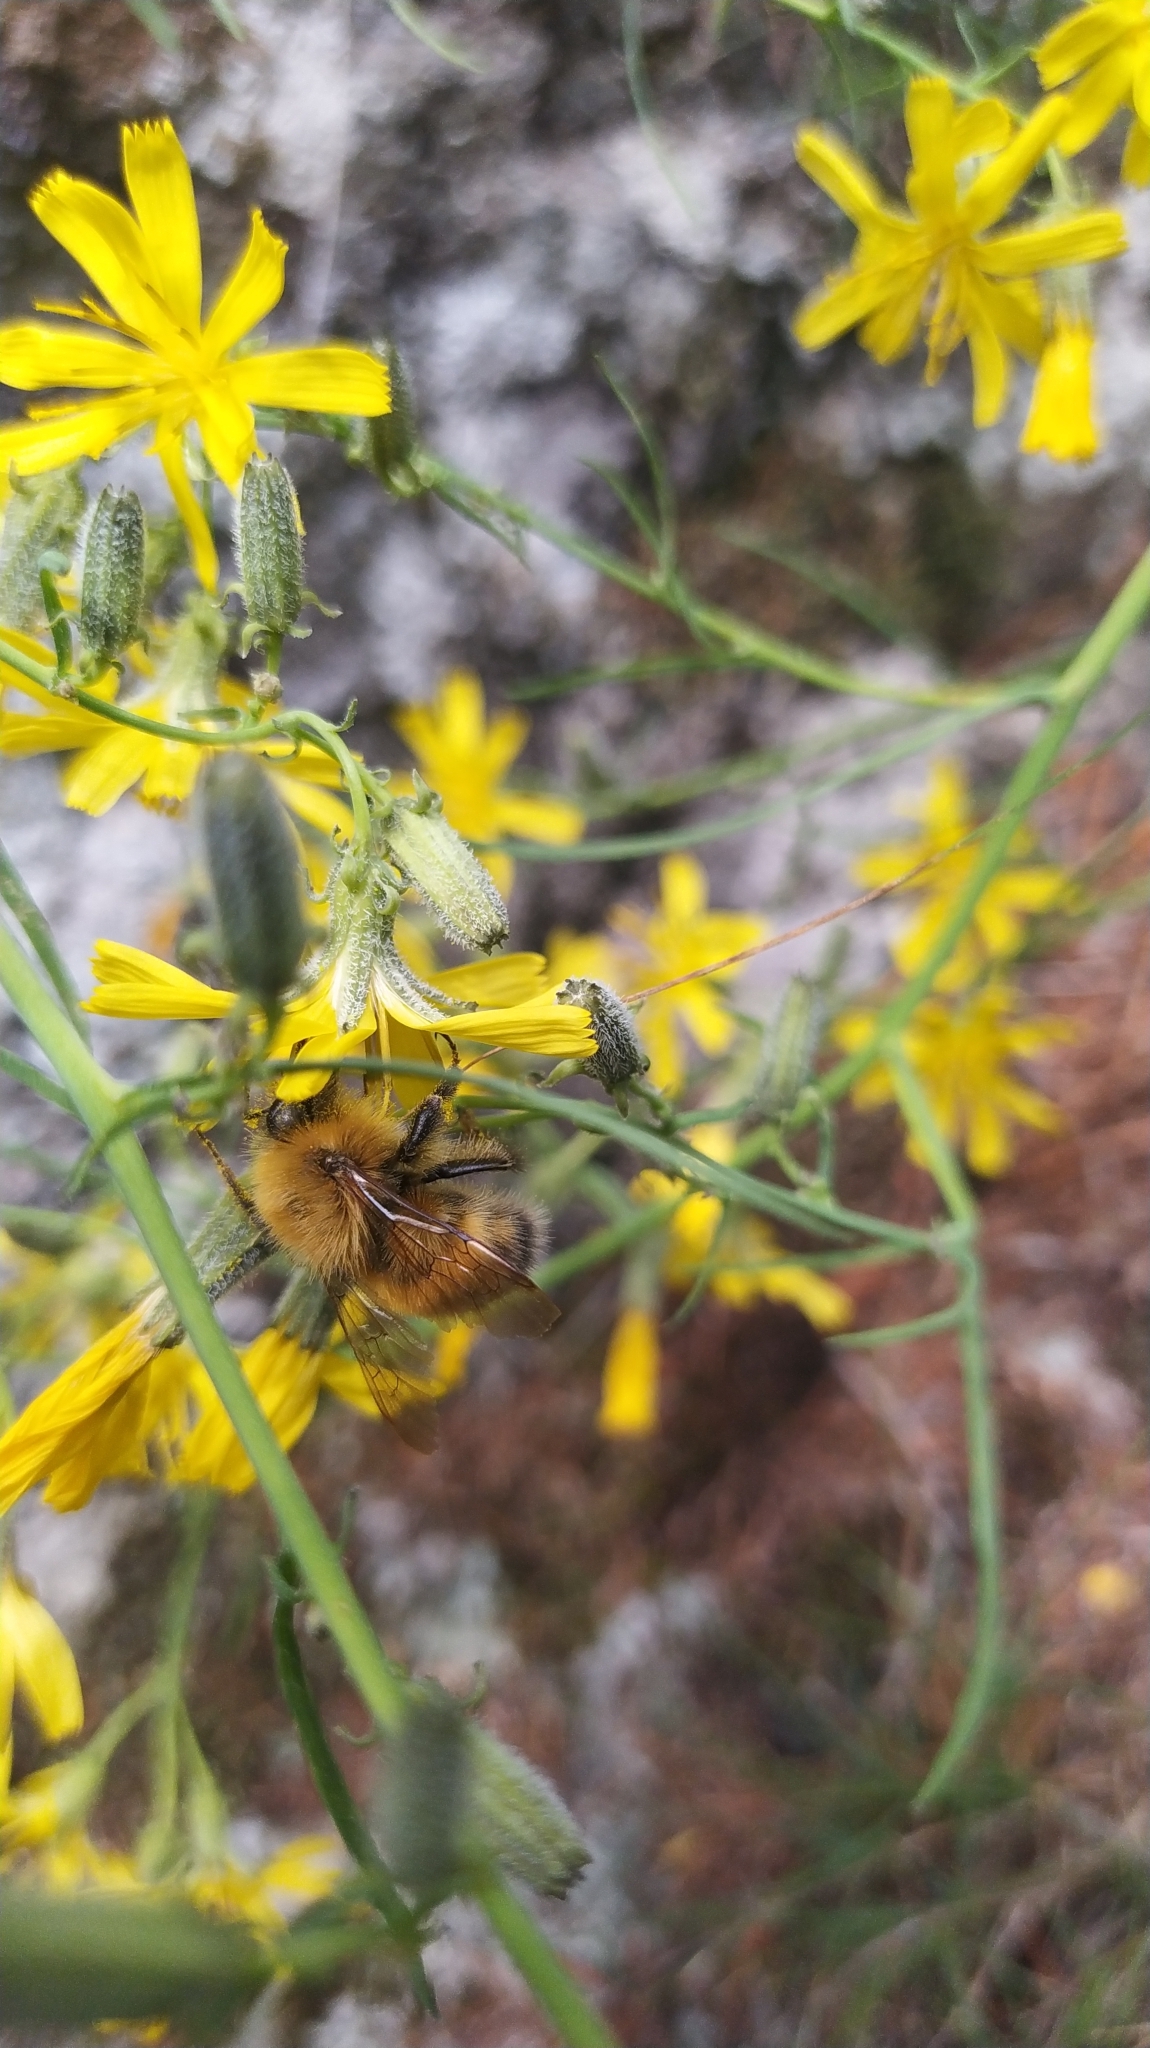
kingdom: Animalia
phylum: Arthropoda
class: Insecta
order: Hymenoptera
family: Apidae
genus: Bombus
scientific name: Bombus hypnorum
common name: New garden bumblebee
